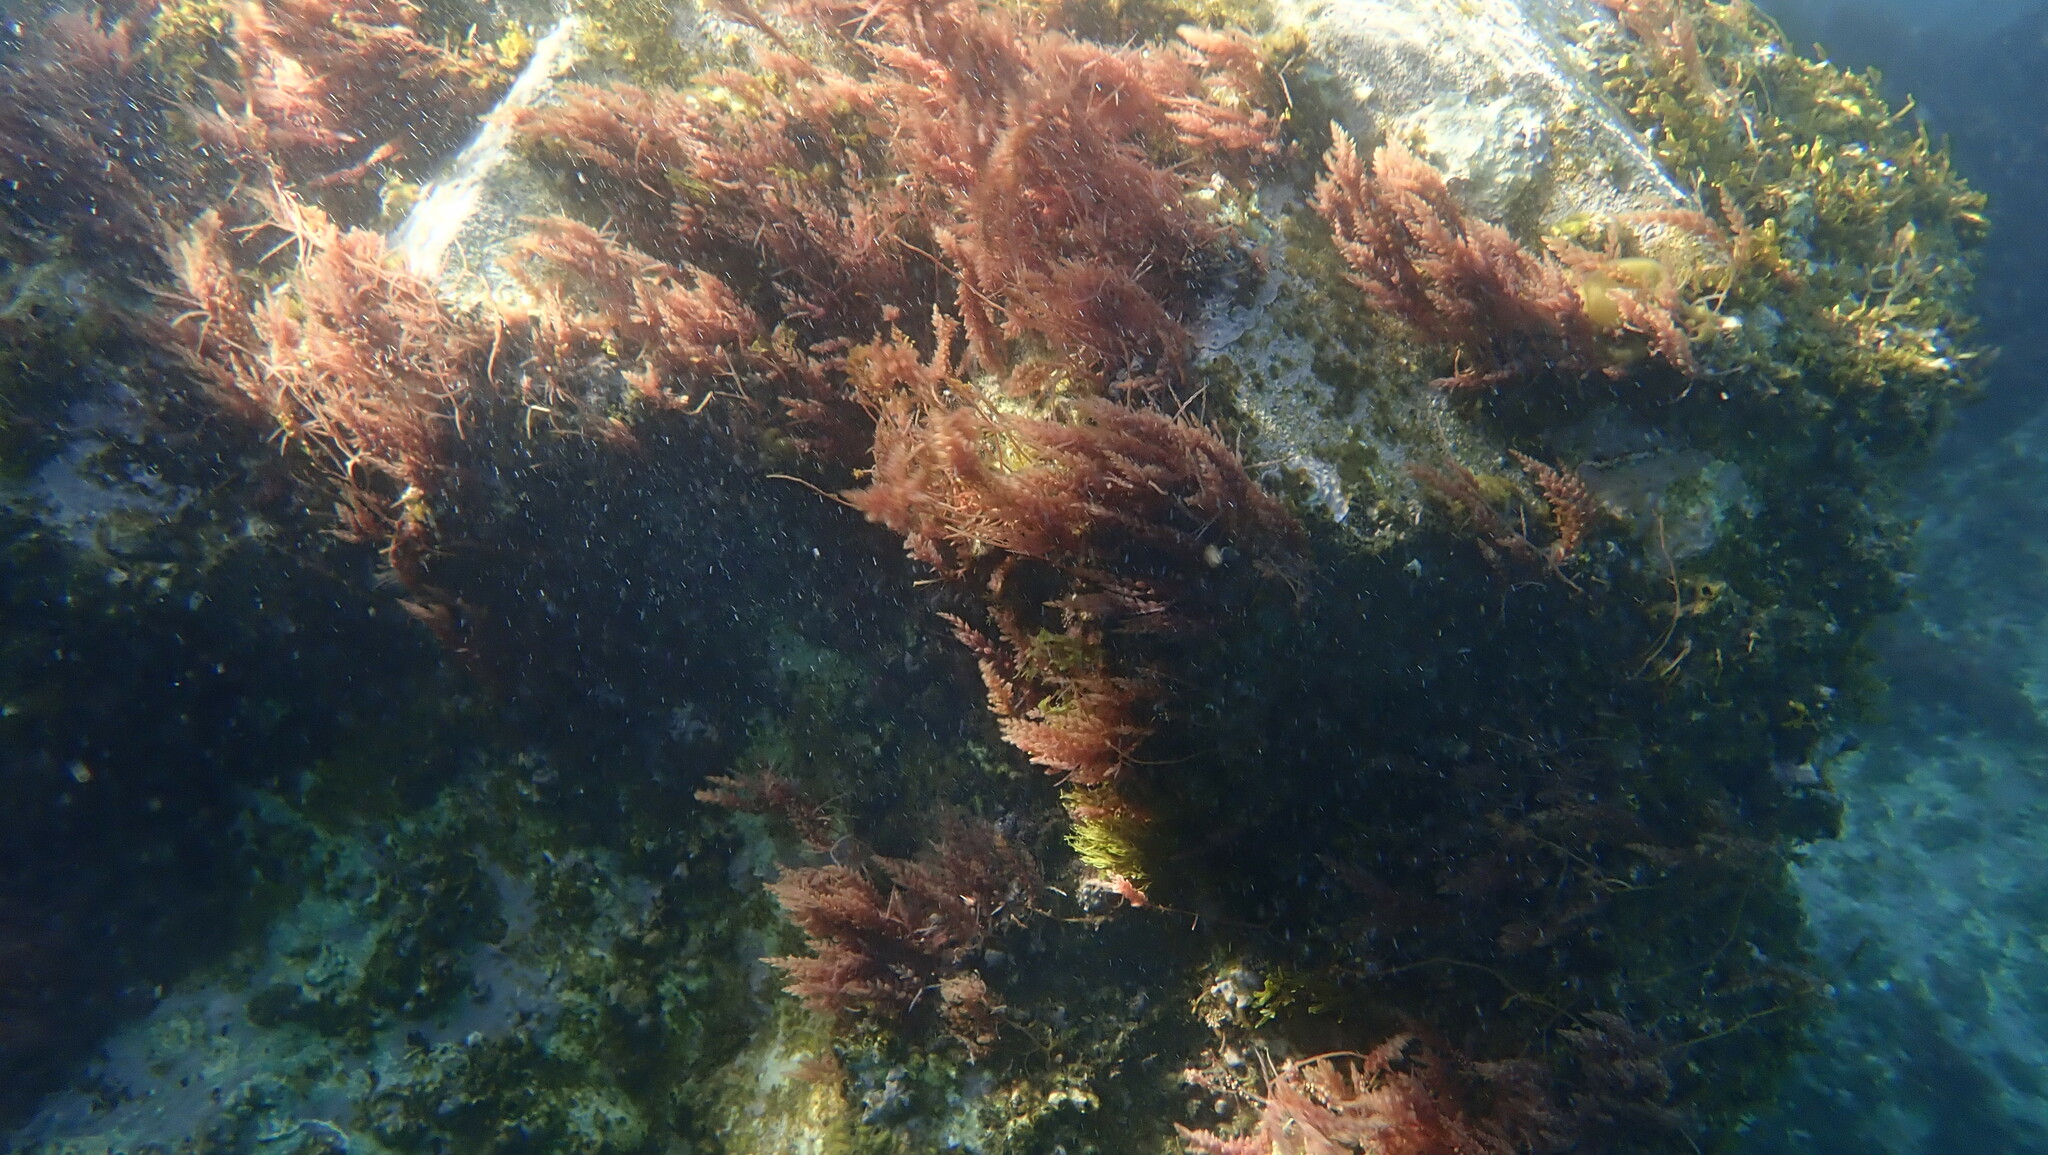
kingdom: Plantae
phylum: Rhodophyta
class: Florideophyceae
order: Bonnemaisoniales
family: Bonnemaisoniaceae
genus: Asparagopsis
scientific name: Asparagopsis armata
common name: Harpoon weed
